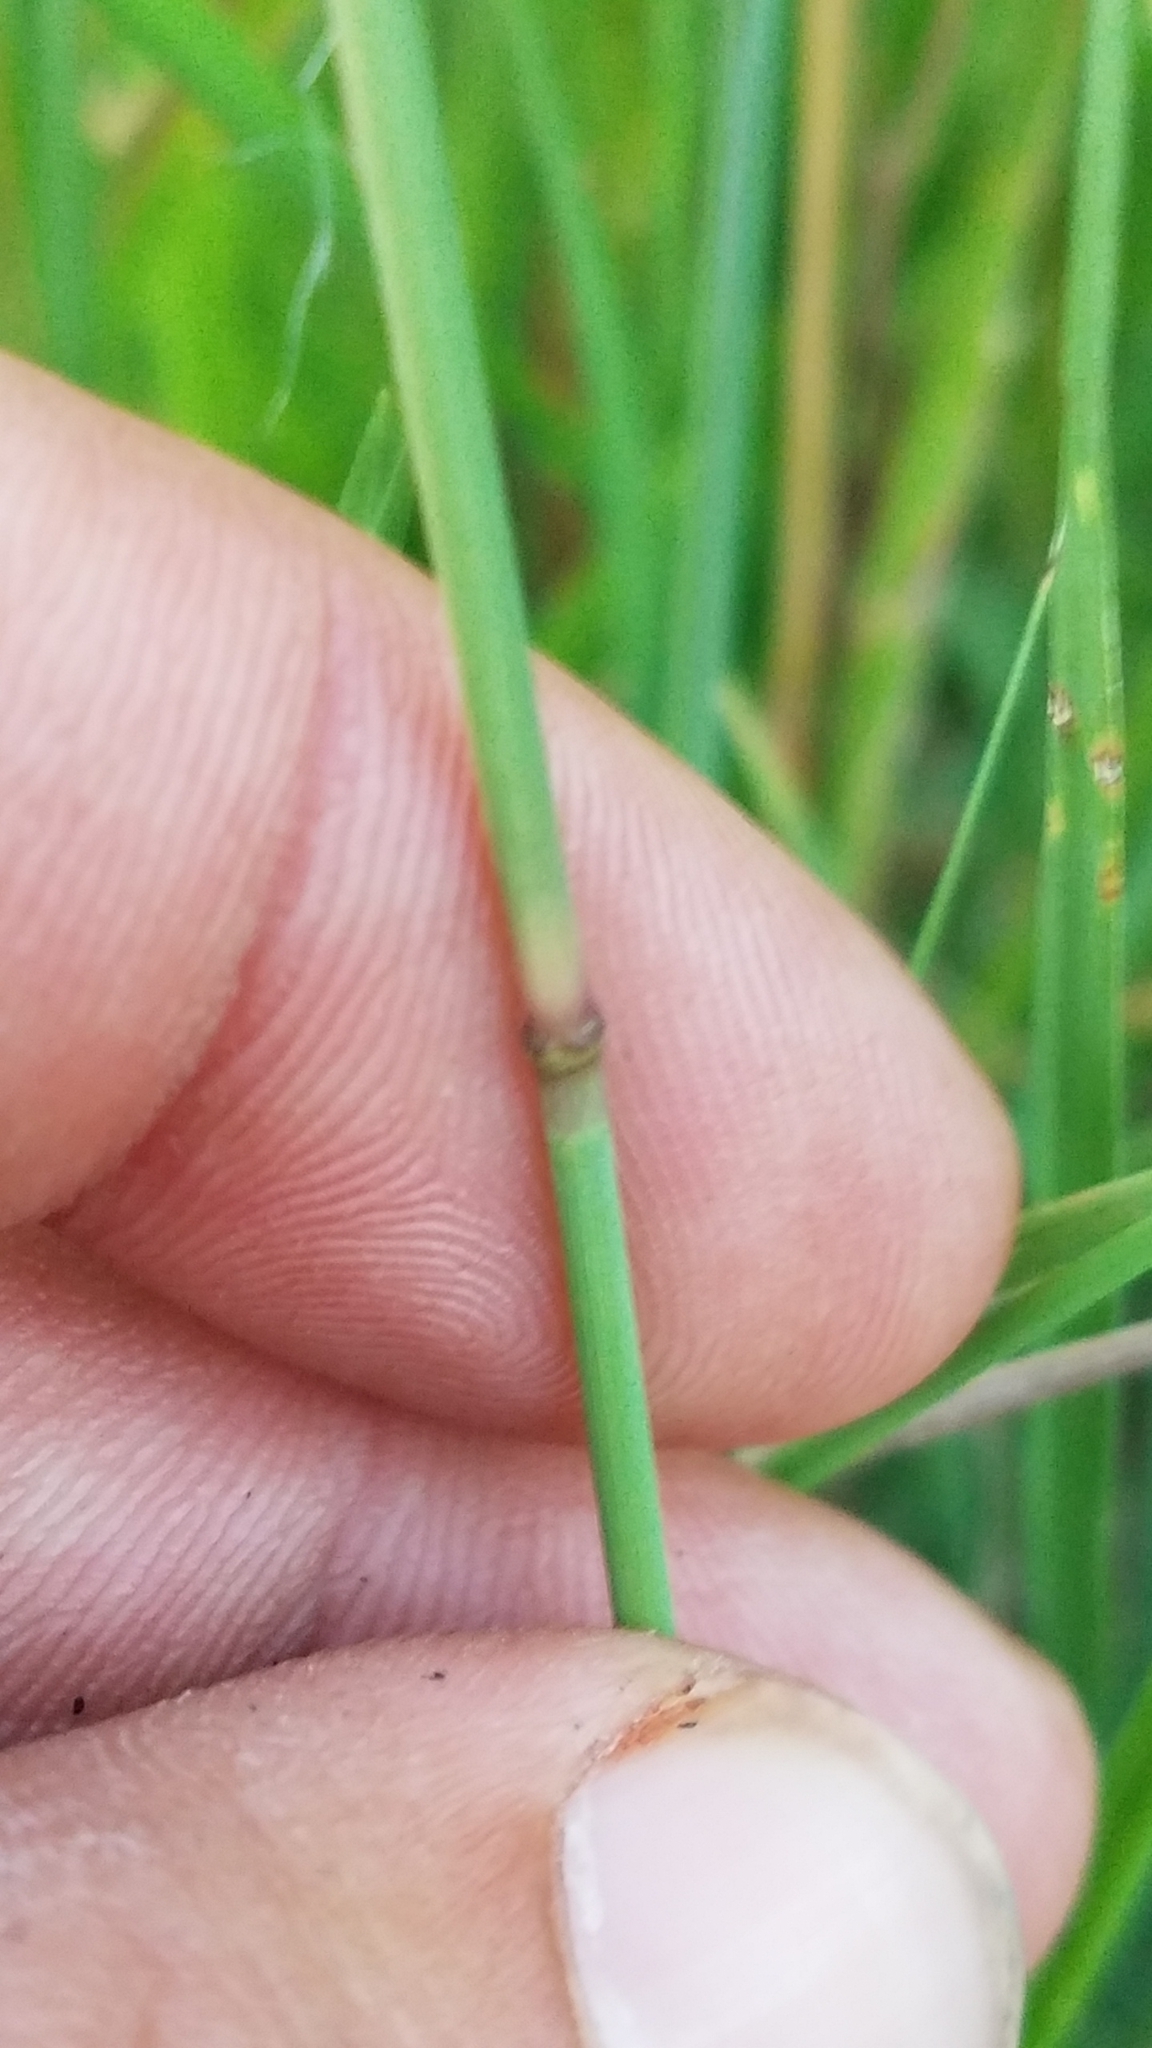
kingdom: Plantae
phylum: Tracheophyta
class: Liliopsida
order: Poales
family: Poaceae
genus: Bouteloua
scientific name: Bouteloua curtipendula
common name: Side-oats grama
